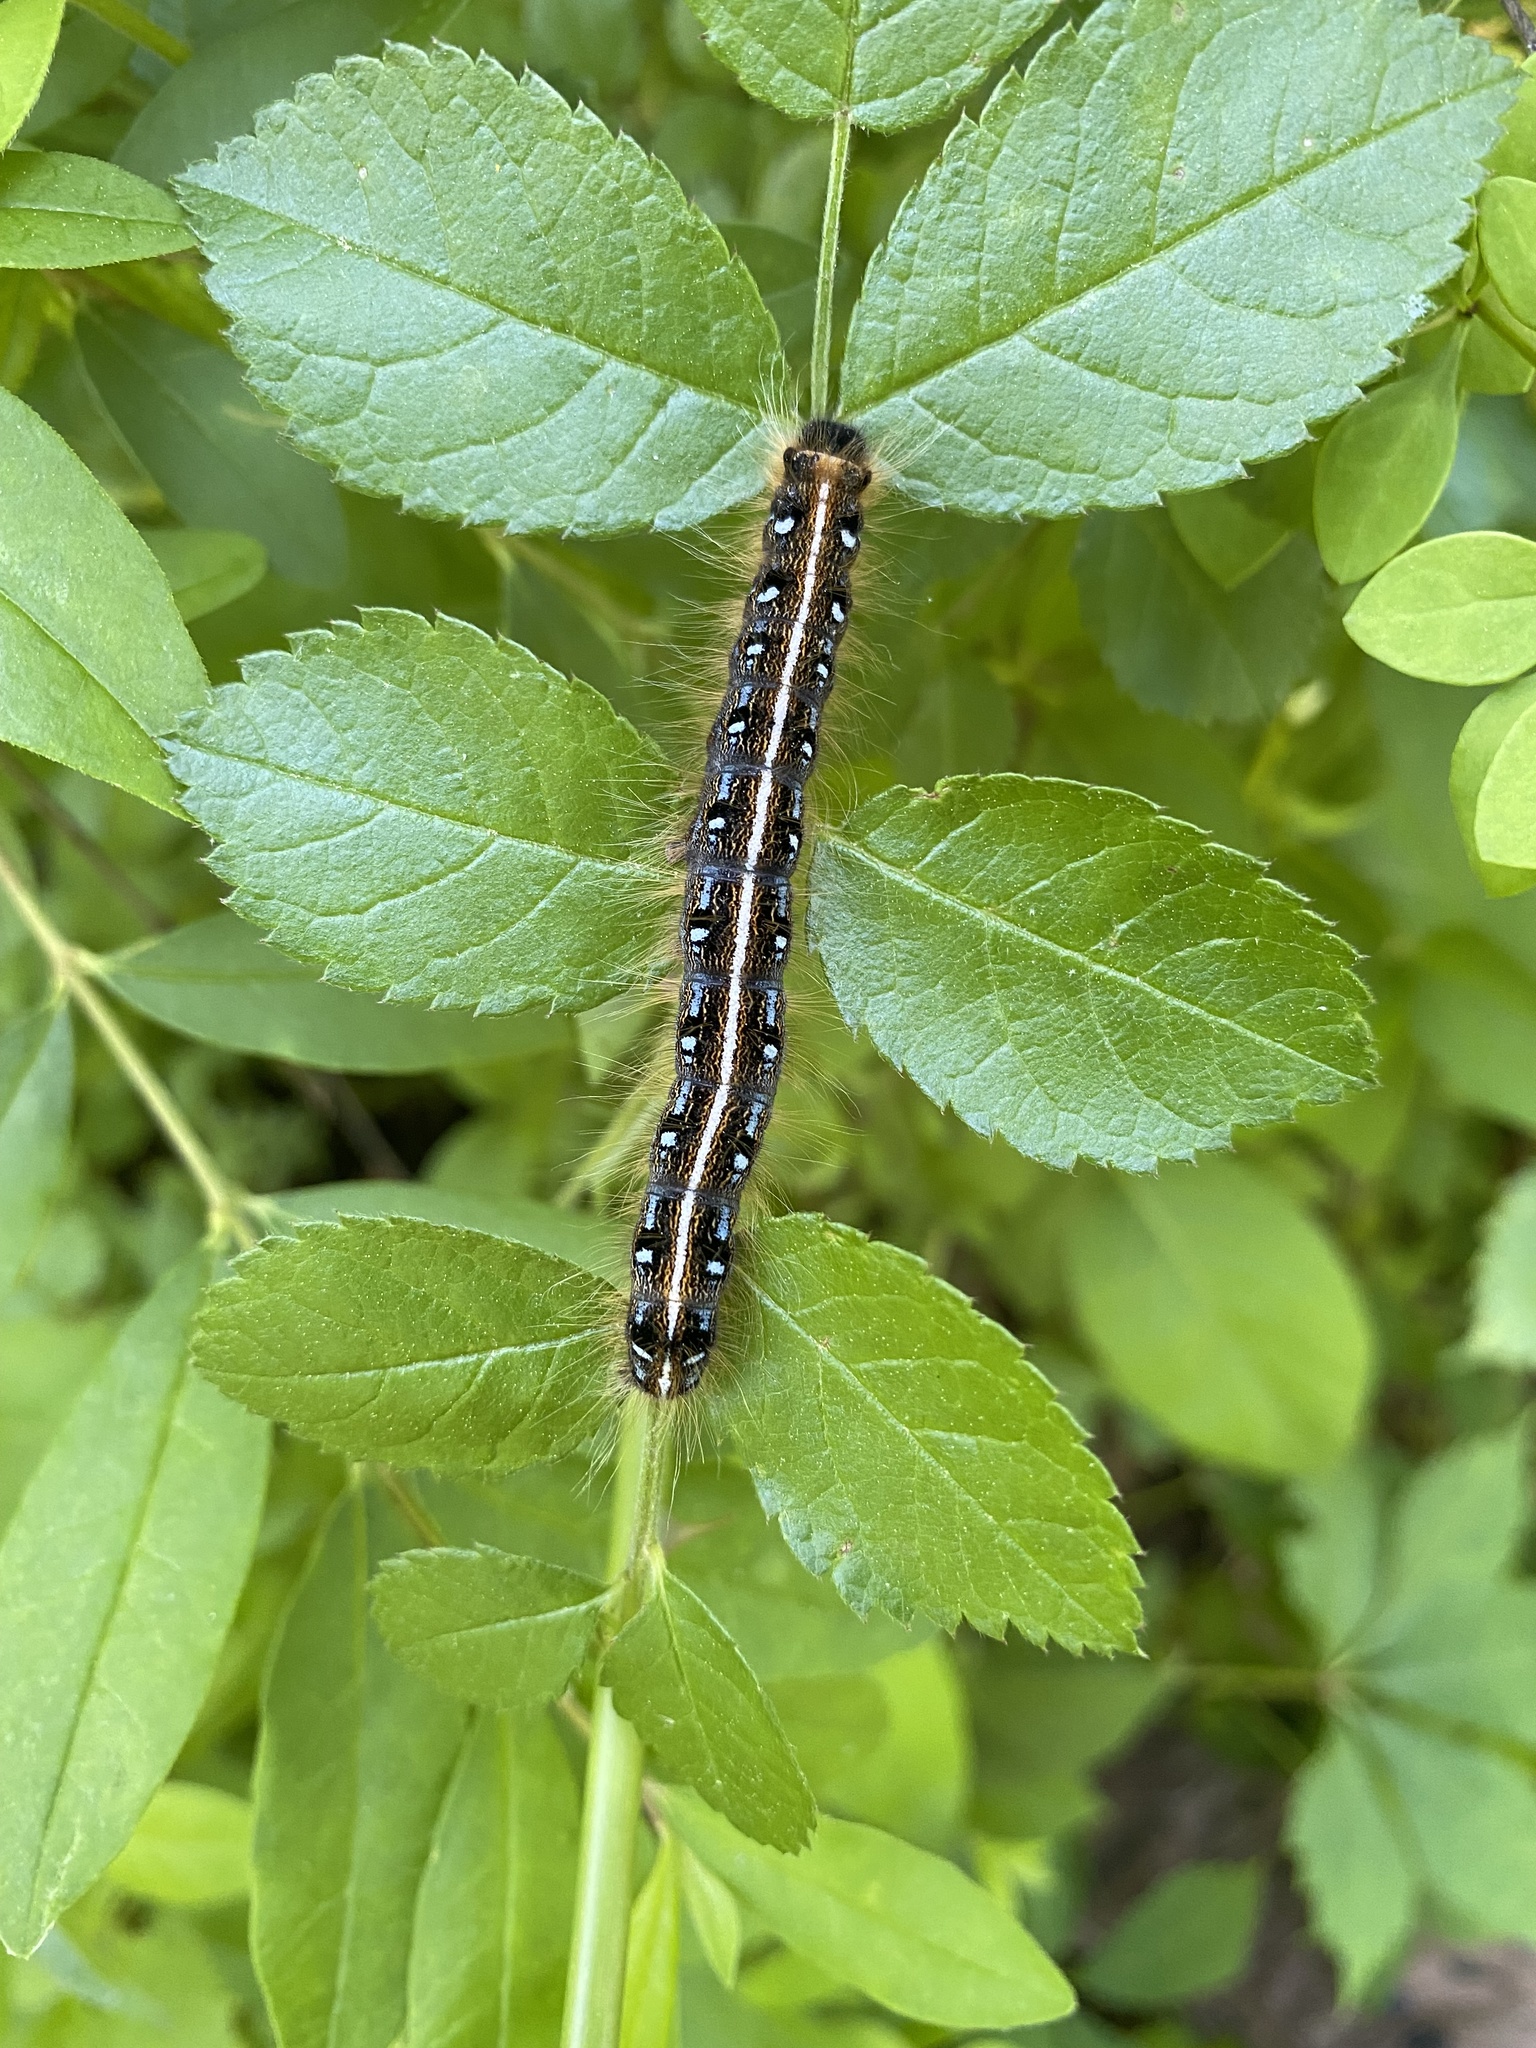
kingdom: Animalia
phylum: Arthropoda
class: Insecta
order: Lepidoptera
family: Lasiocampidae
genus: Malacosoma
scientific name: Malacosoma americana
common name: Eastern tent caterpillar moth
